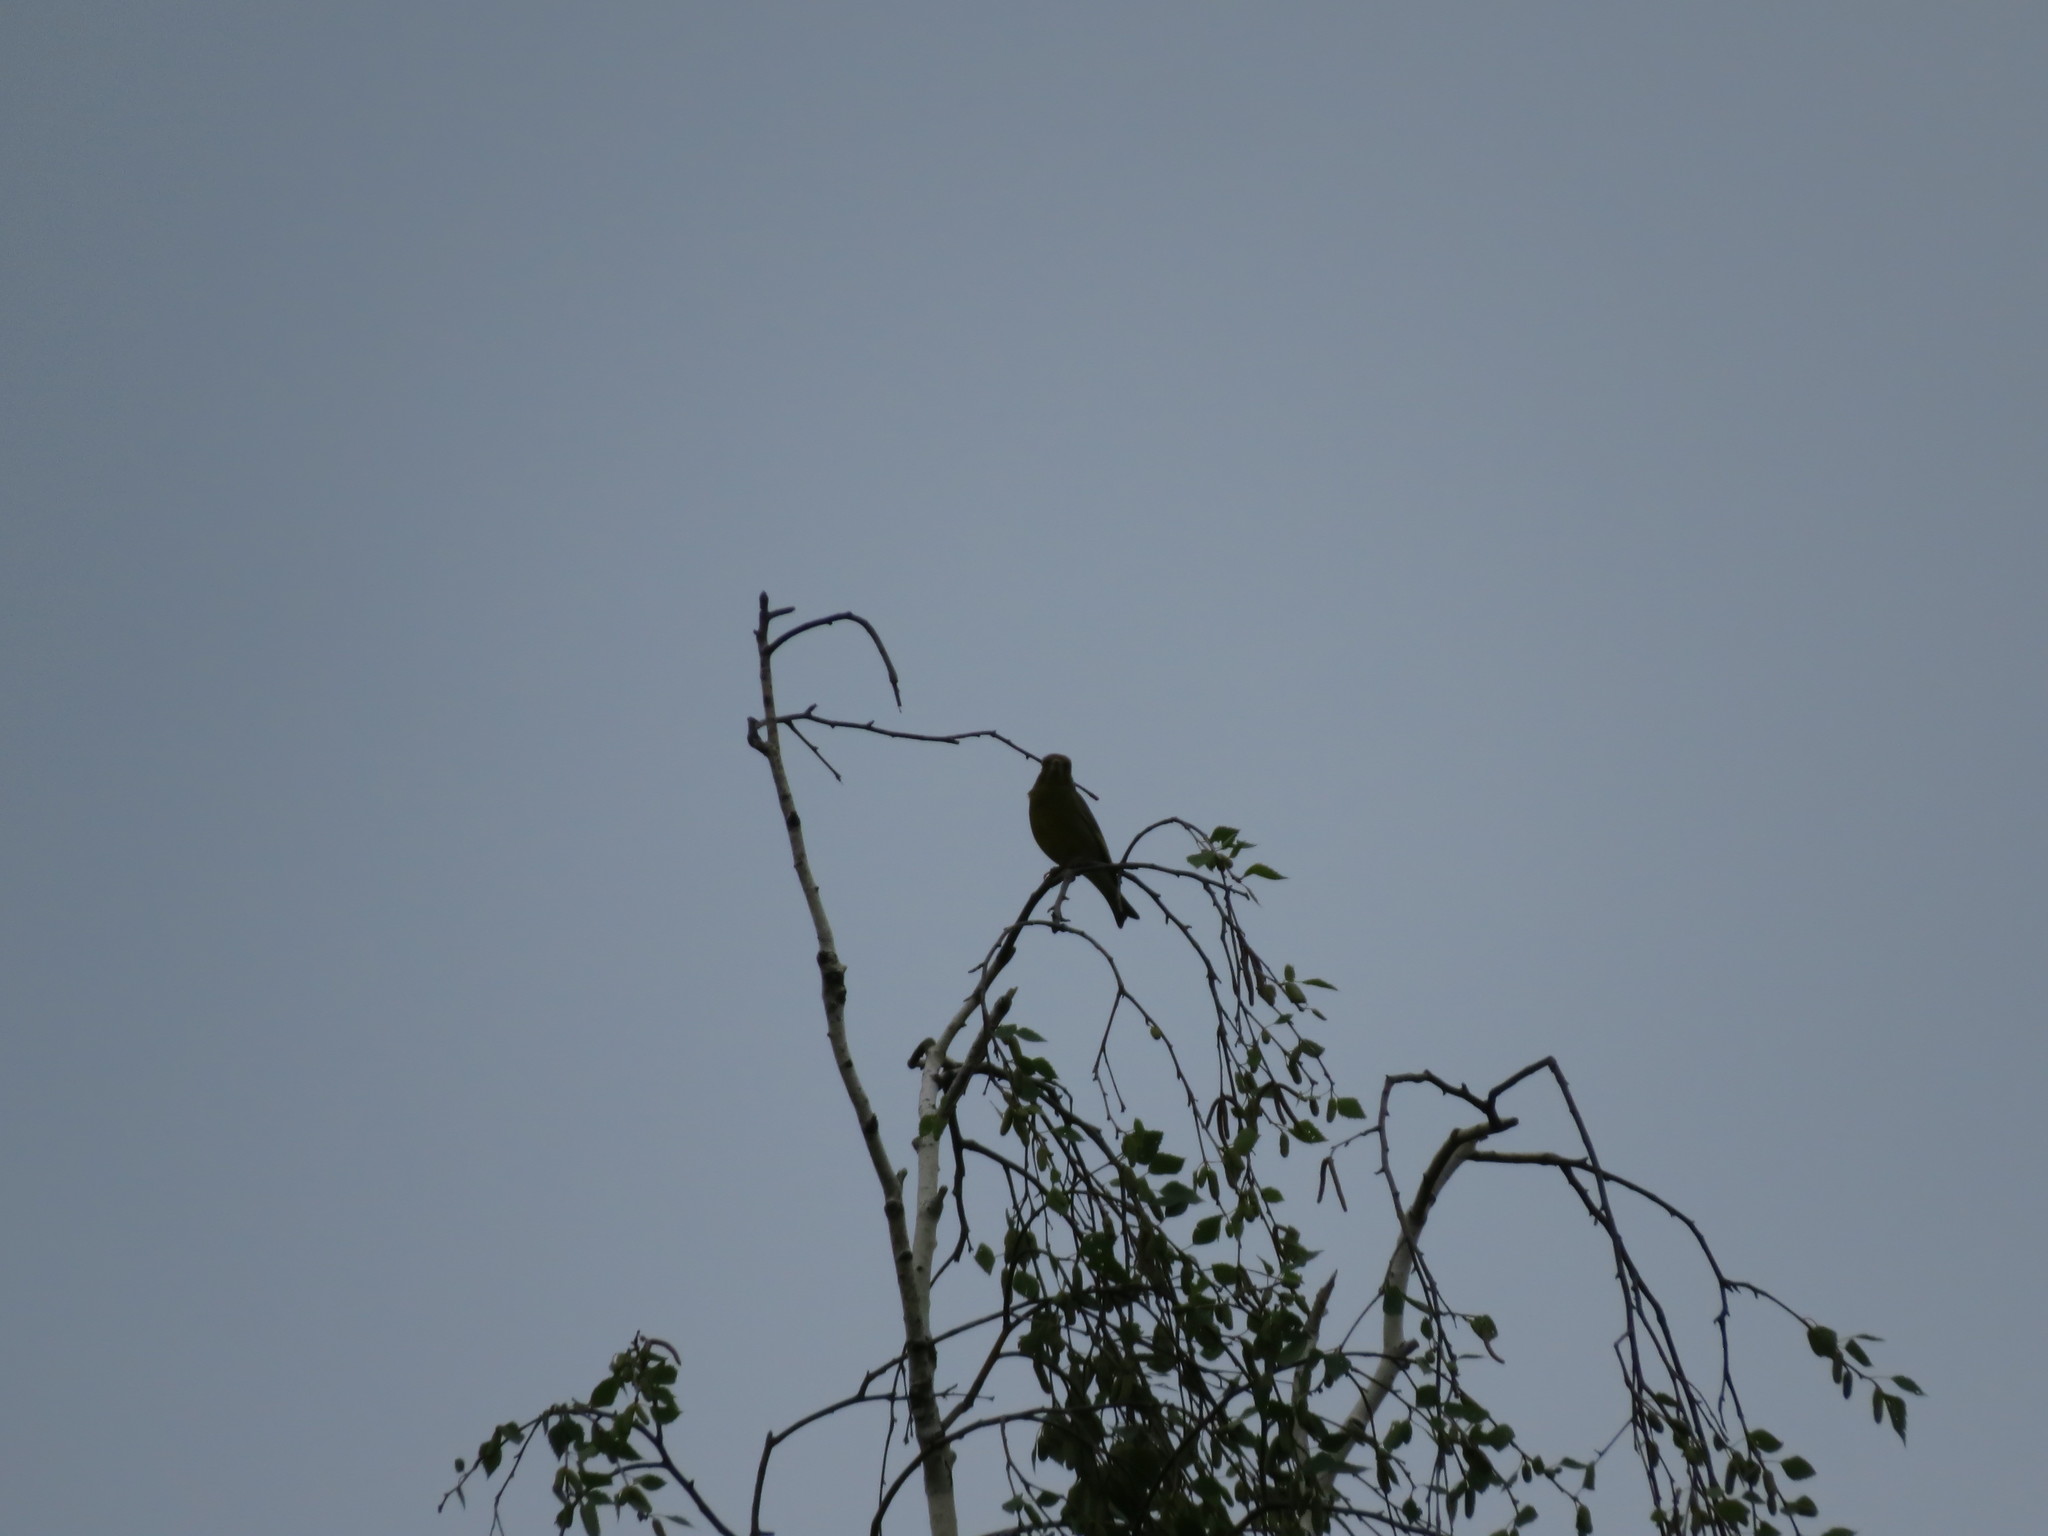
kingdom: Plantae
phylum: Tracheophyta
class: Liliopsida
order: Poales
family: Poaceae
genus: Chloris
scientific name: Chloris chloris
